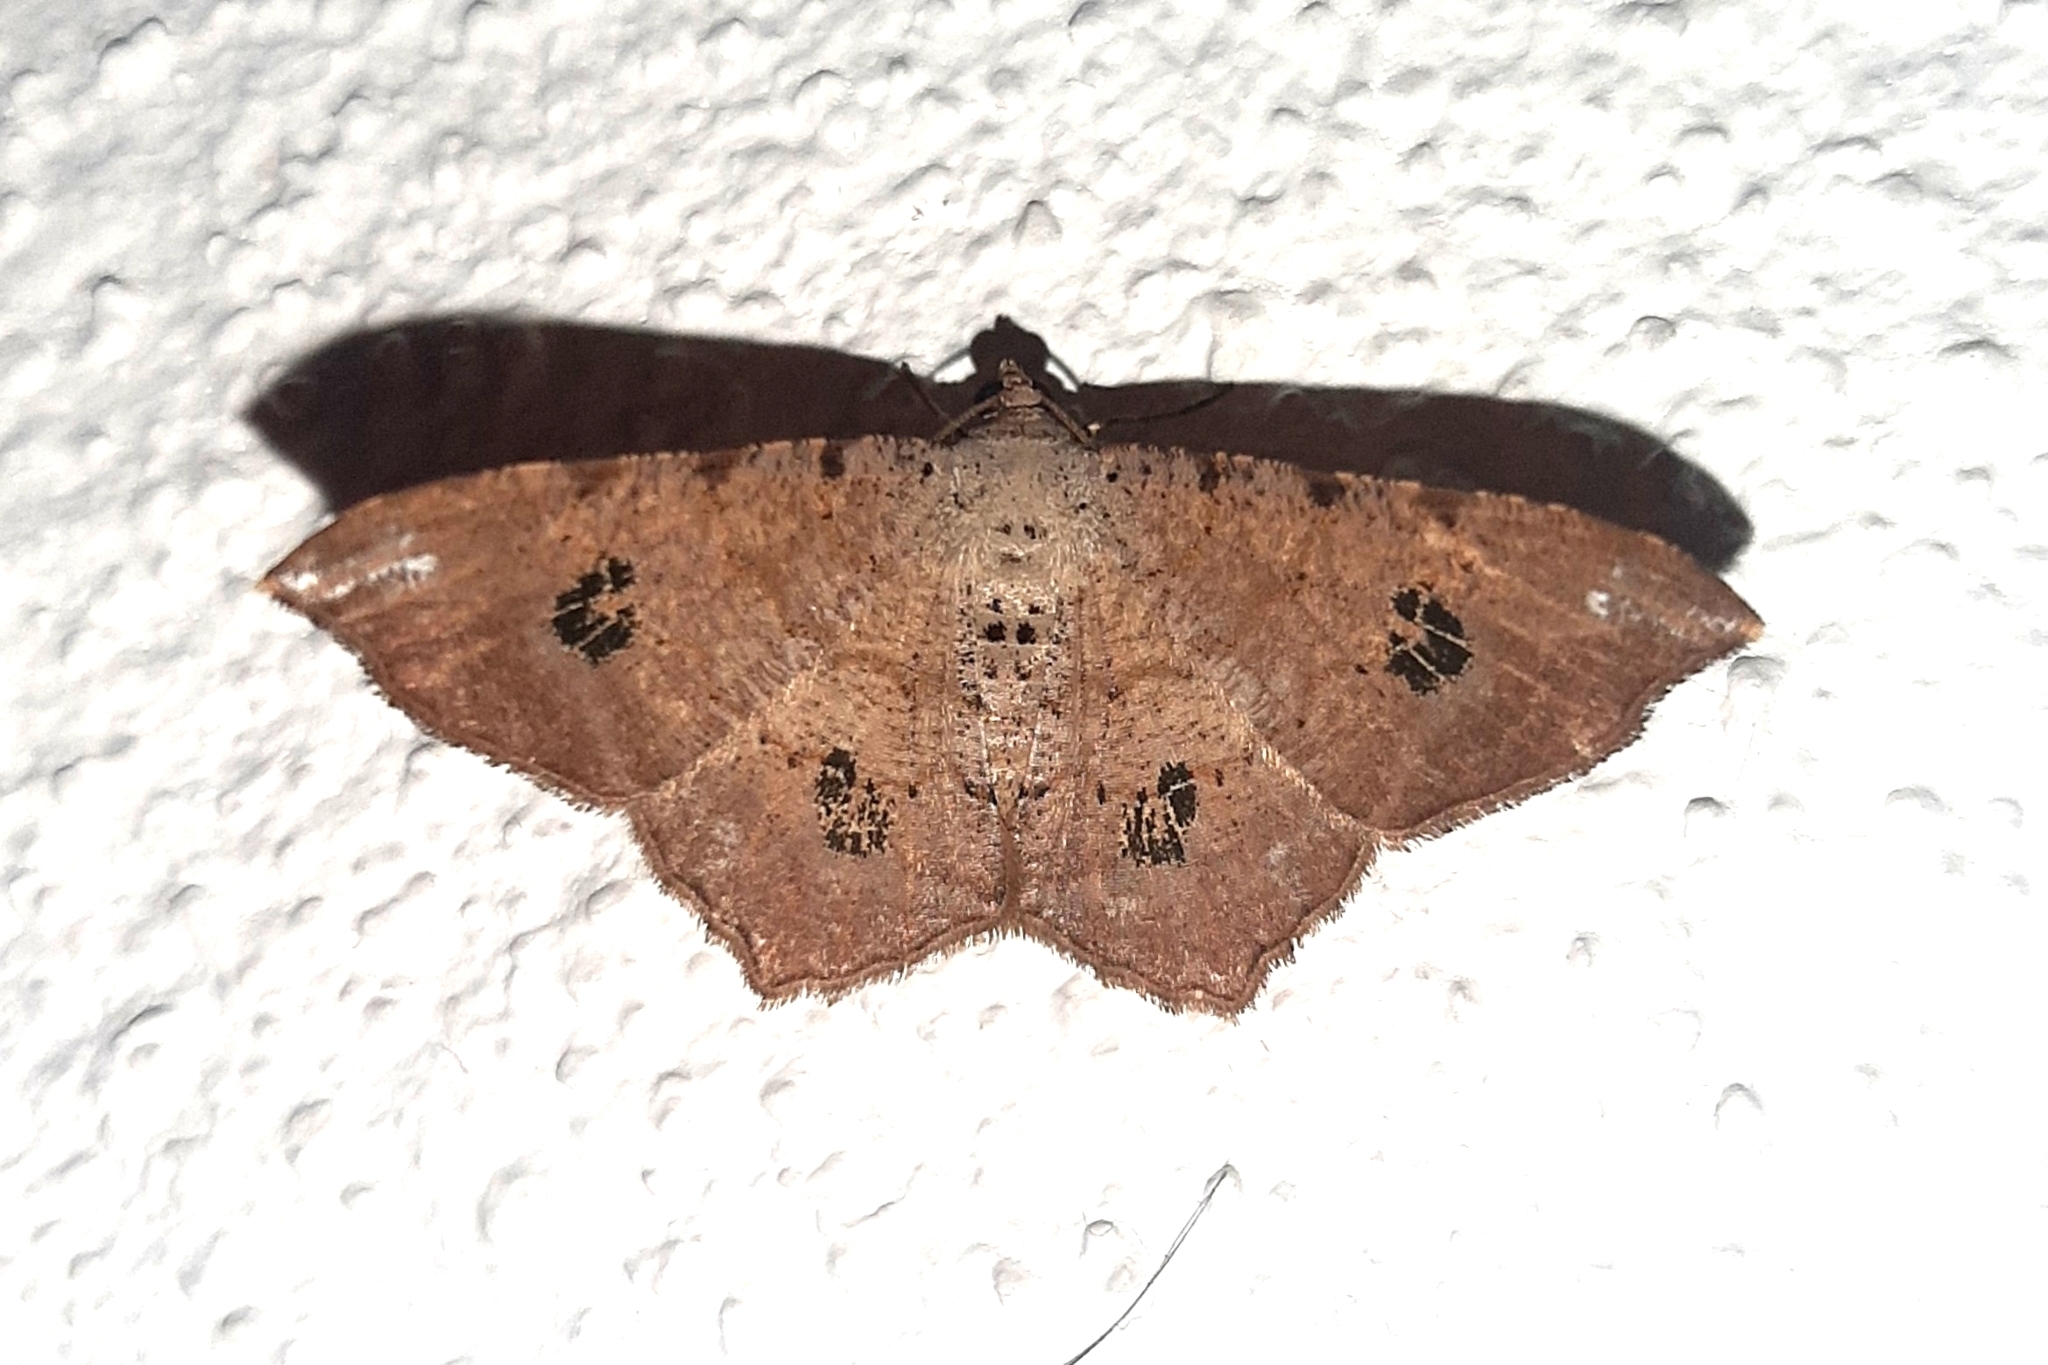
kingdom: Animalia
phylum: Arthropoda
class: Insecta
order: Lepidoptera
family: Geometridae
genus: Semiothisa
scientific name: Semiothisa valmonaria
